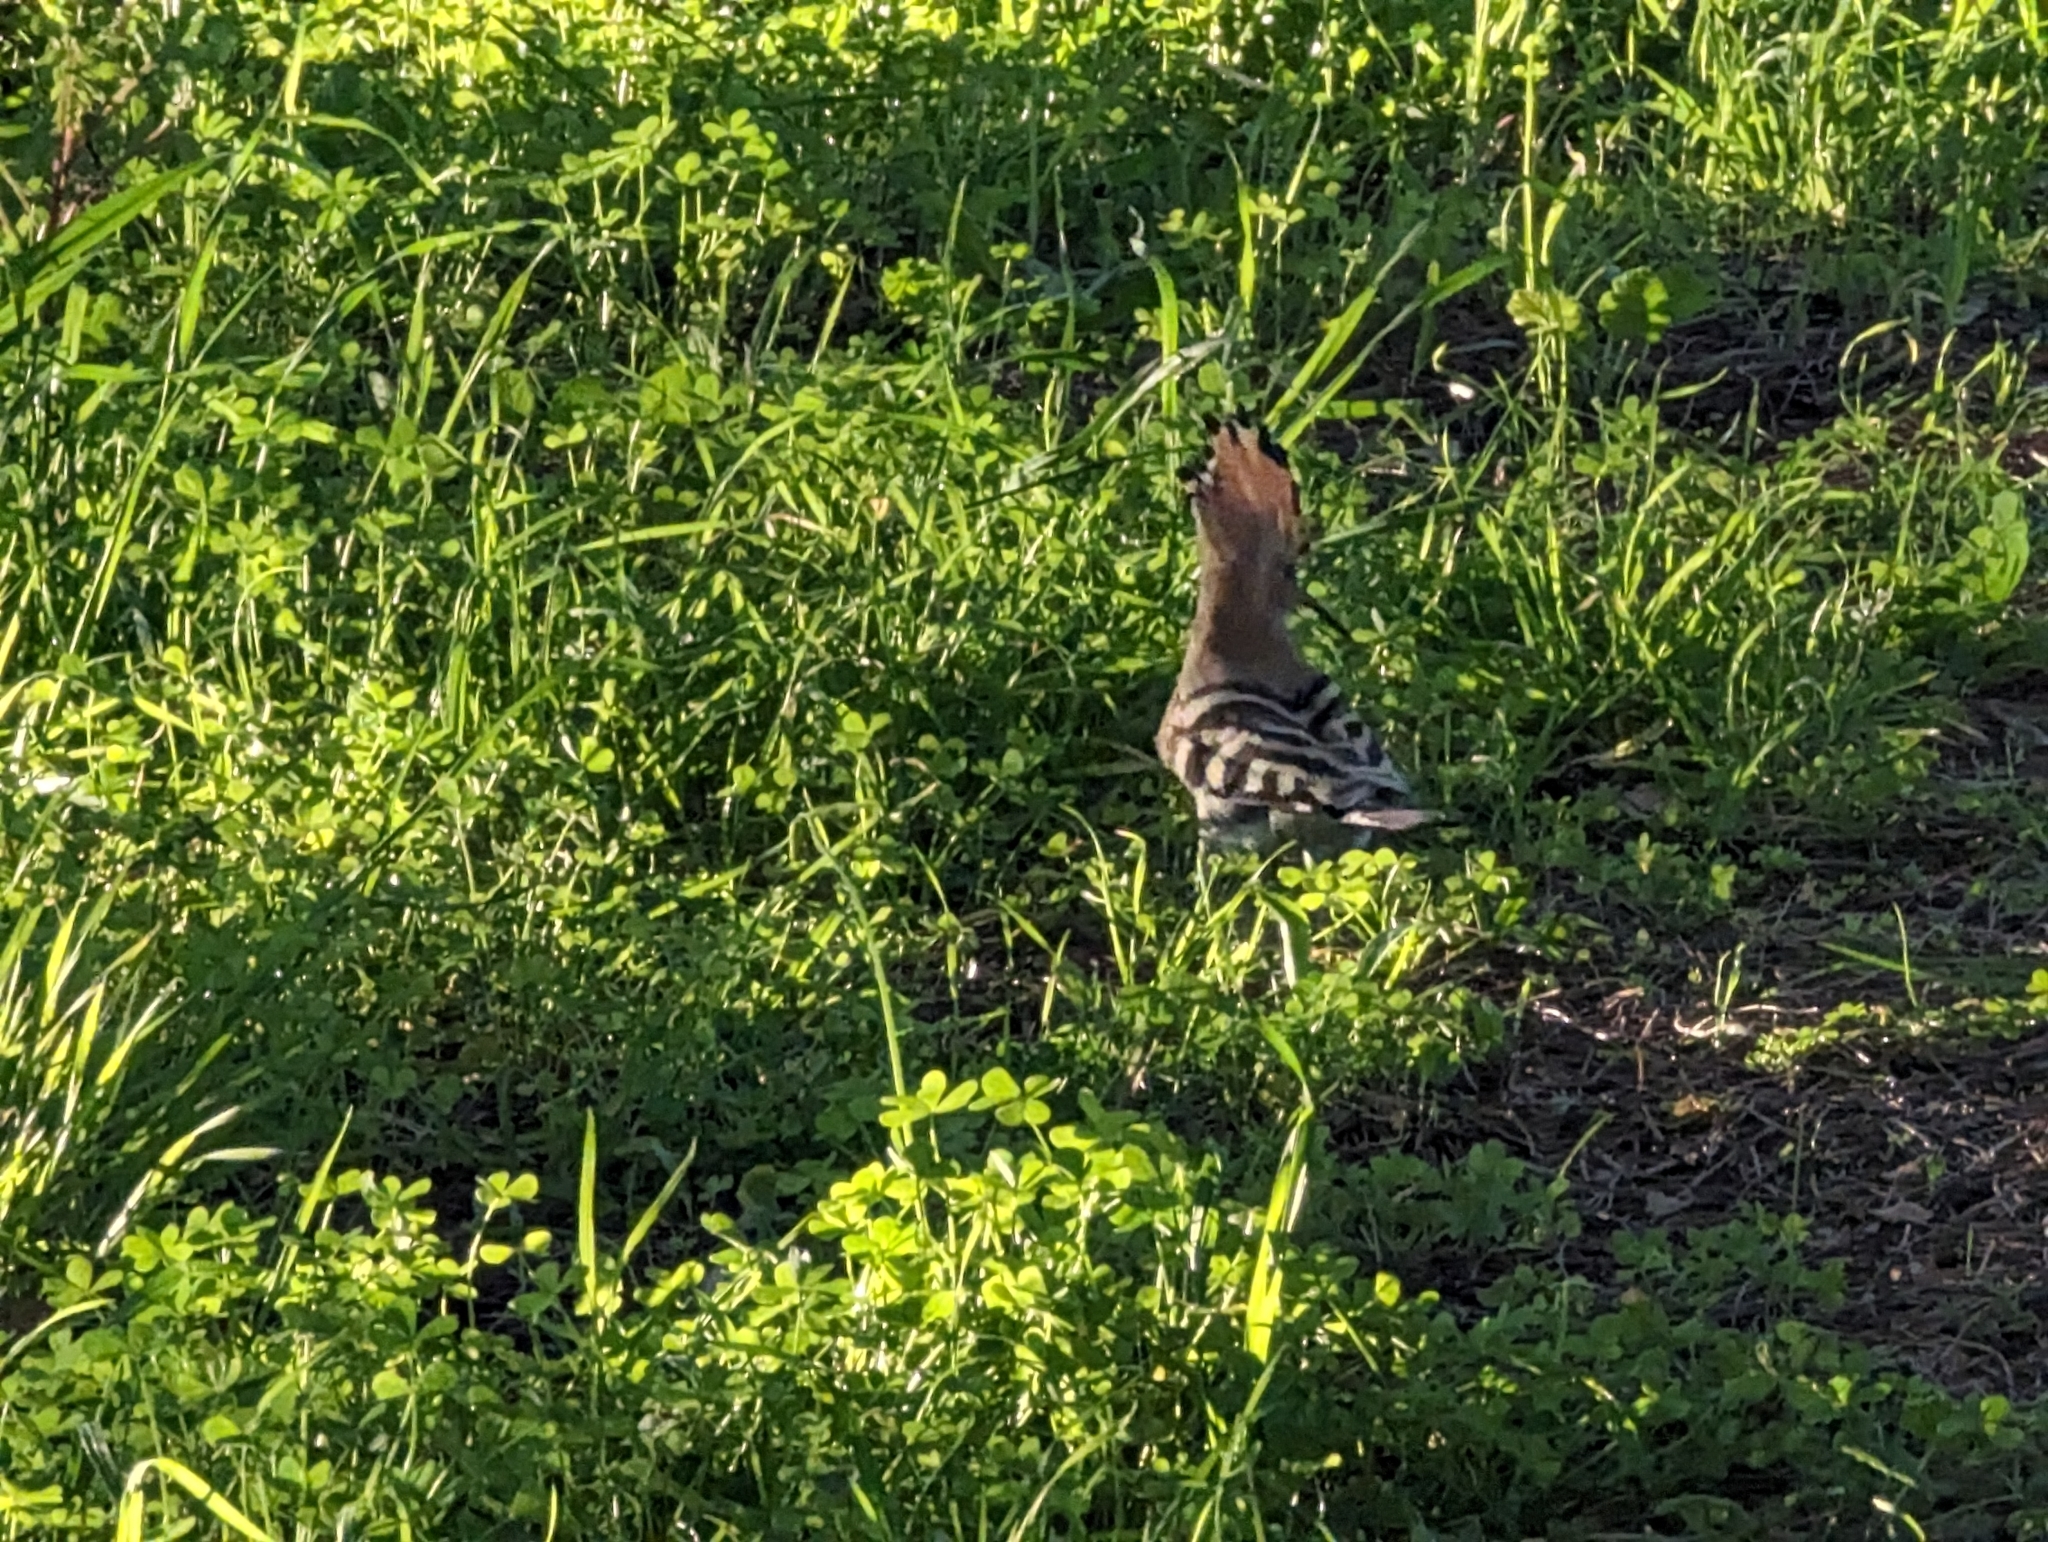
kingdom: Animalia
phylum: Chordata
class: Aves
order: Bucerotiformes
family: Upupidae
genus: Upupa
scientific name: Upupa epops
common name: Eurasian hoopoe
